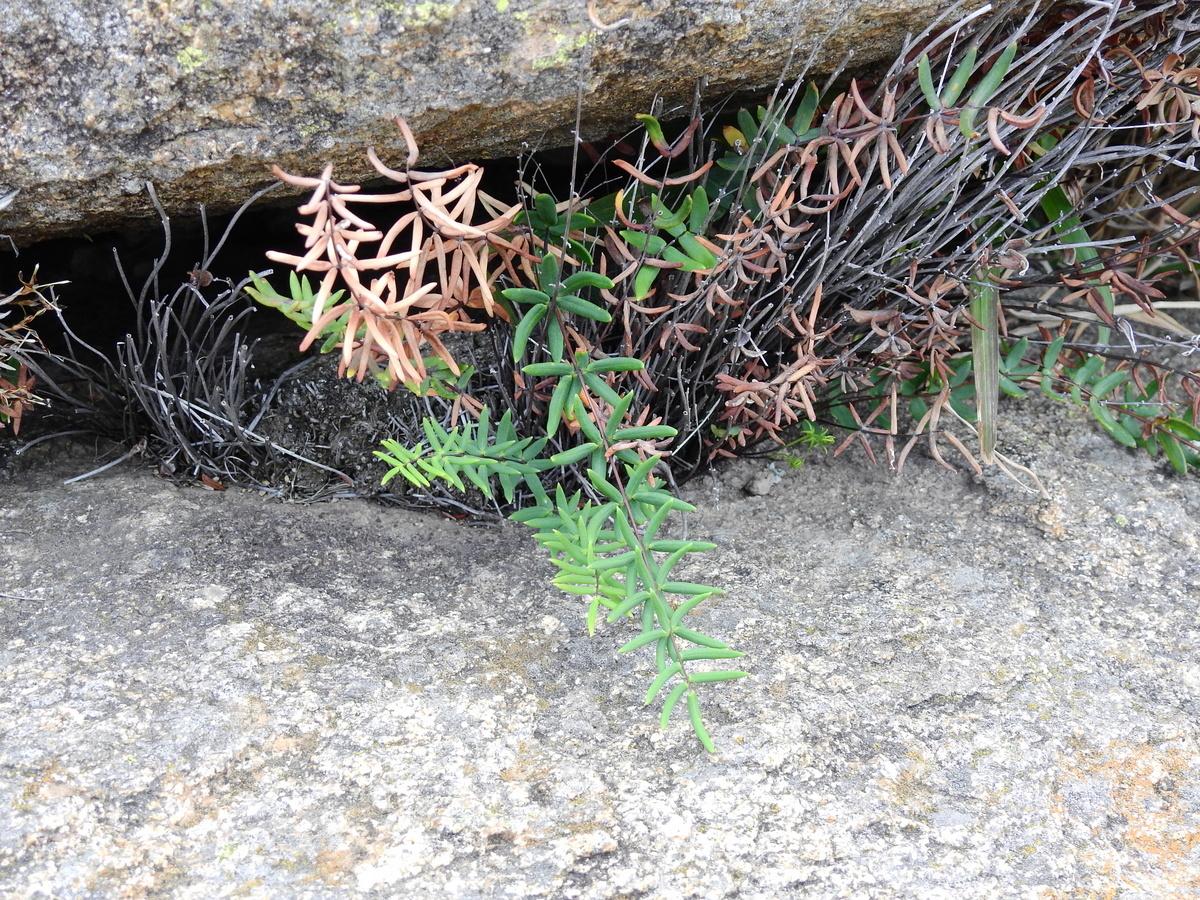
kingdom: Plantae
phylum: Tracheophyta
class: Polypodiopsida
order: Polypodiales
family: Pteridaceae
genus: Pellaea
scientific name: Pellaea ternifolia
